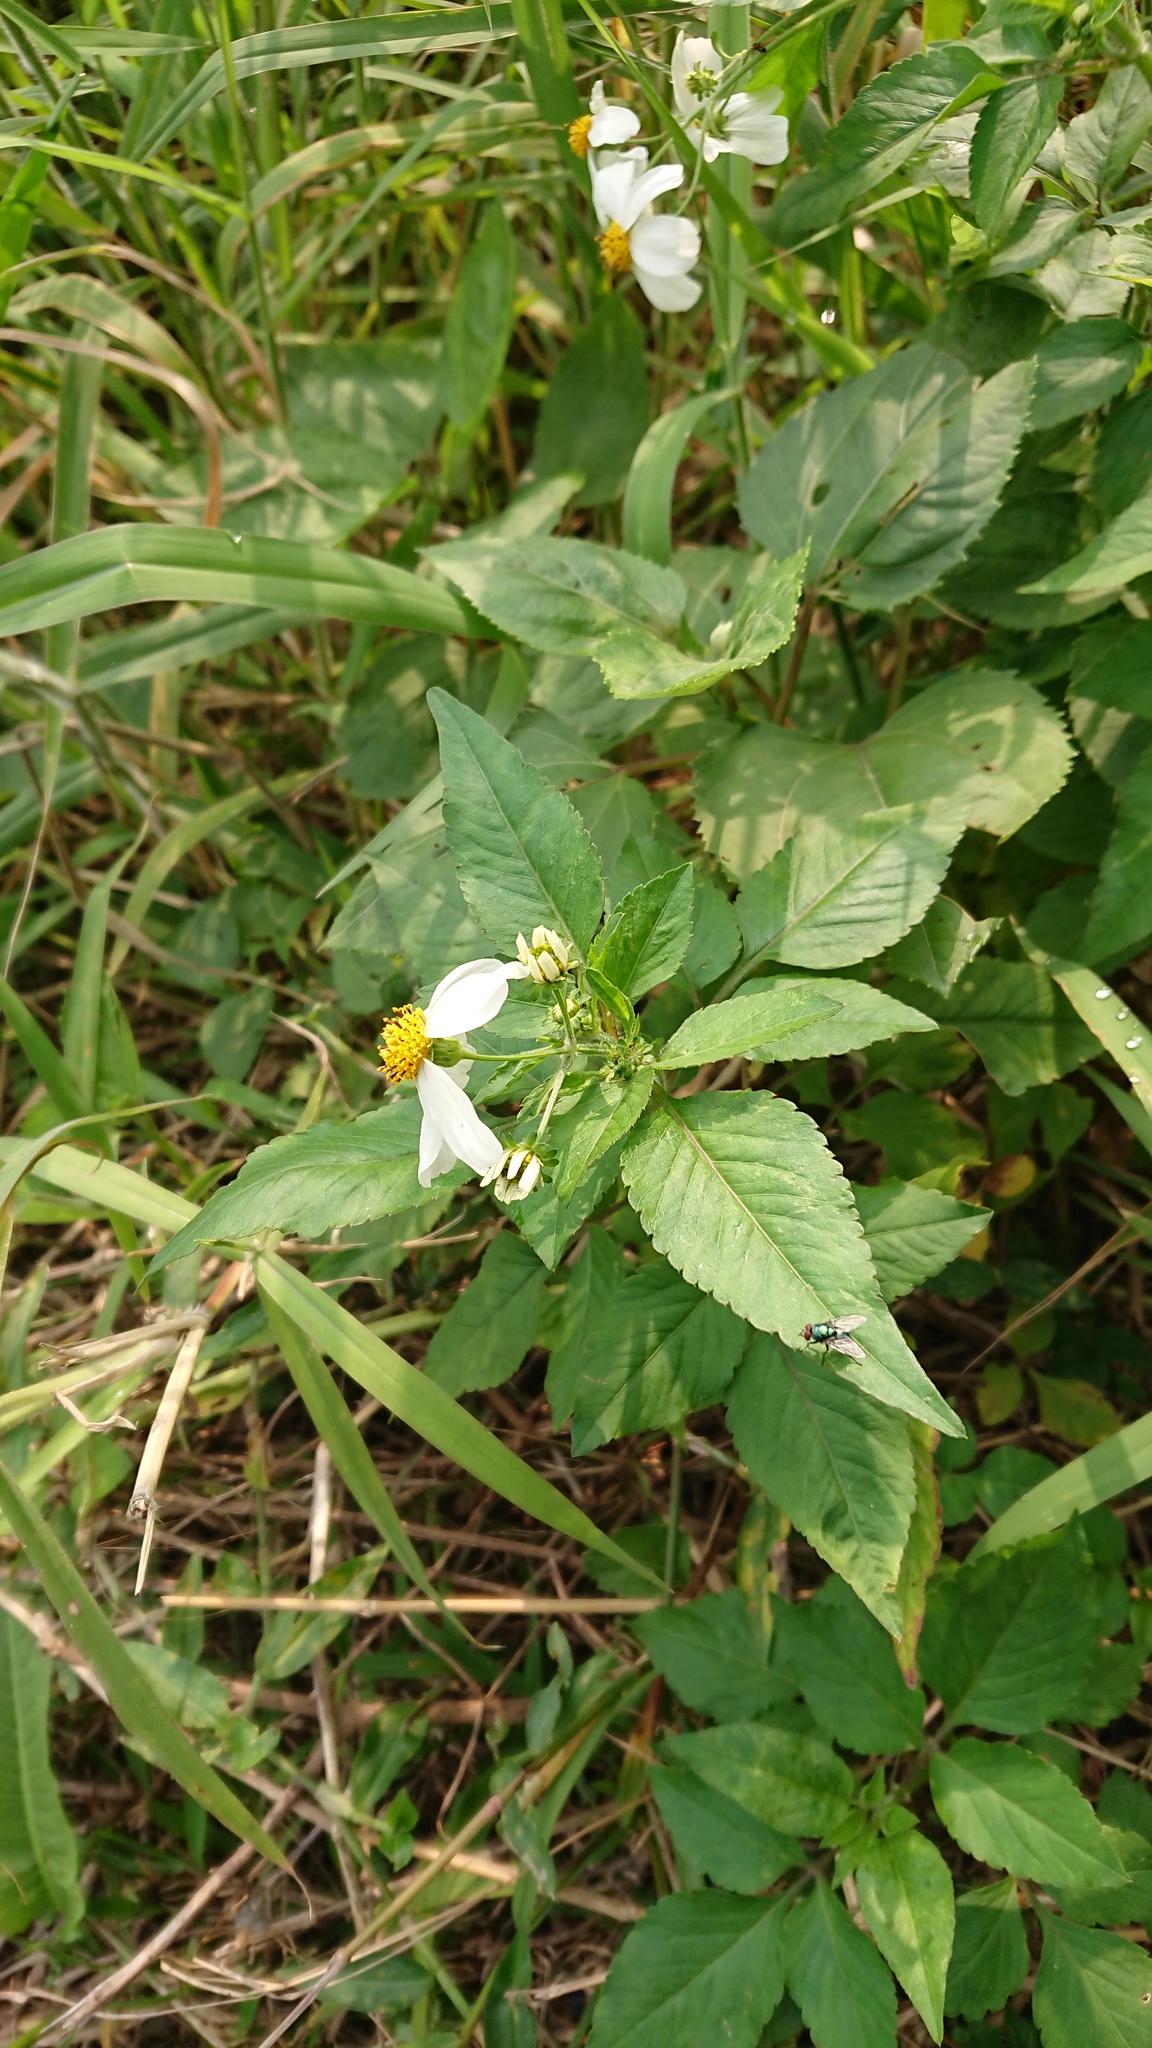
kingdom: Plantae
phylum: Tracheophyta
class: Magnoliopsida
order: Asterales
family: Asteraceae
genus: Bidens
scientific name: Bidens alba
